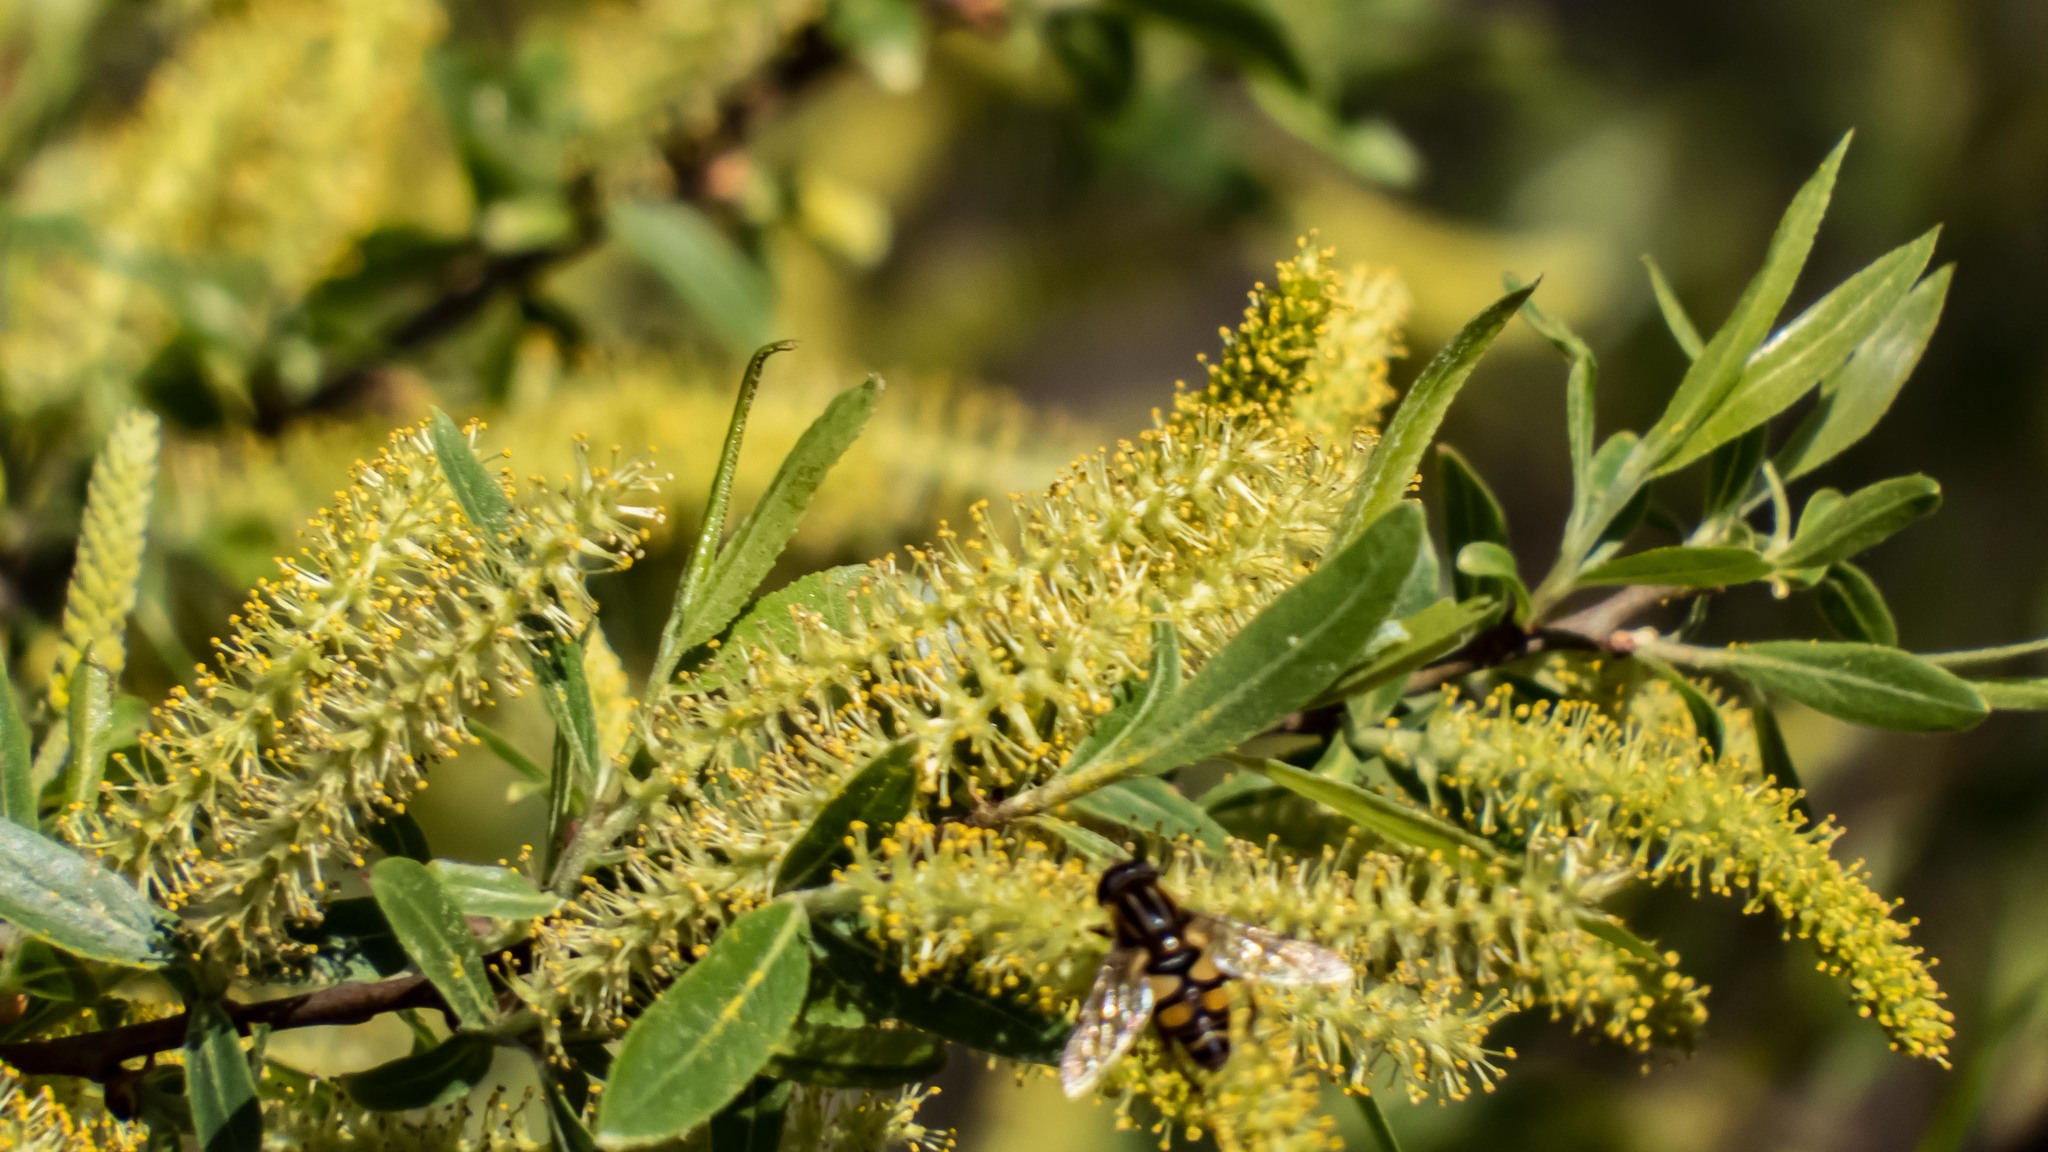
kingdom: Plantae
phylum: Tracheophyta
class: Magnoliopsida
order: Malpighiales
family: Salicaceae
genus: Salix
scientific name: Salix nigra
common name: Black willow
